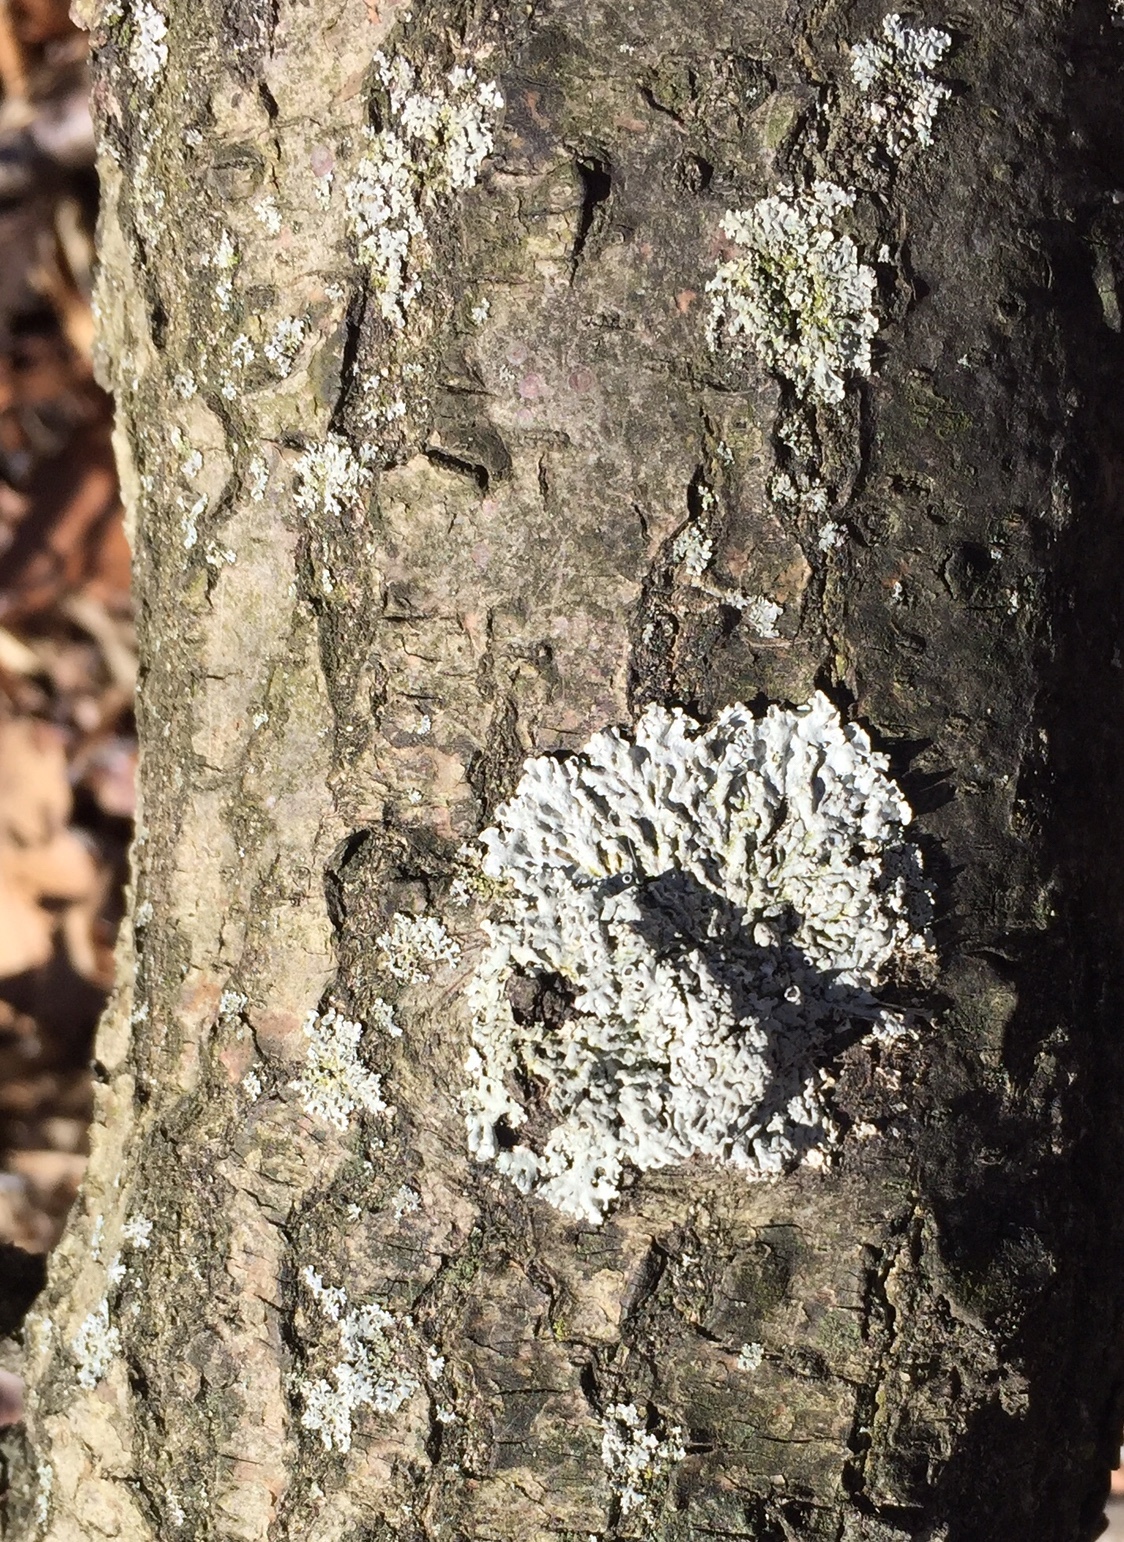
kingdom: Fungi
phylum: Ascomycota
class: Lecanoromycetes
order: Caliciales
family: Physciaceae
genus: Physcia
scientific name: Physcia stellaris
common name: Star rosette lichen
